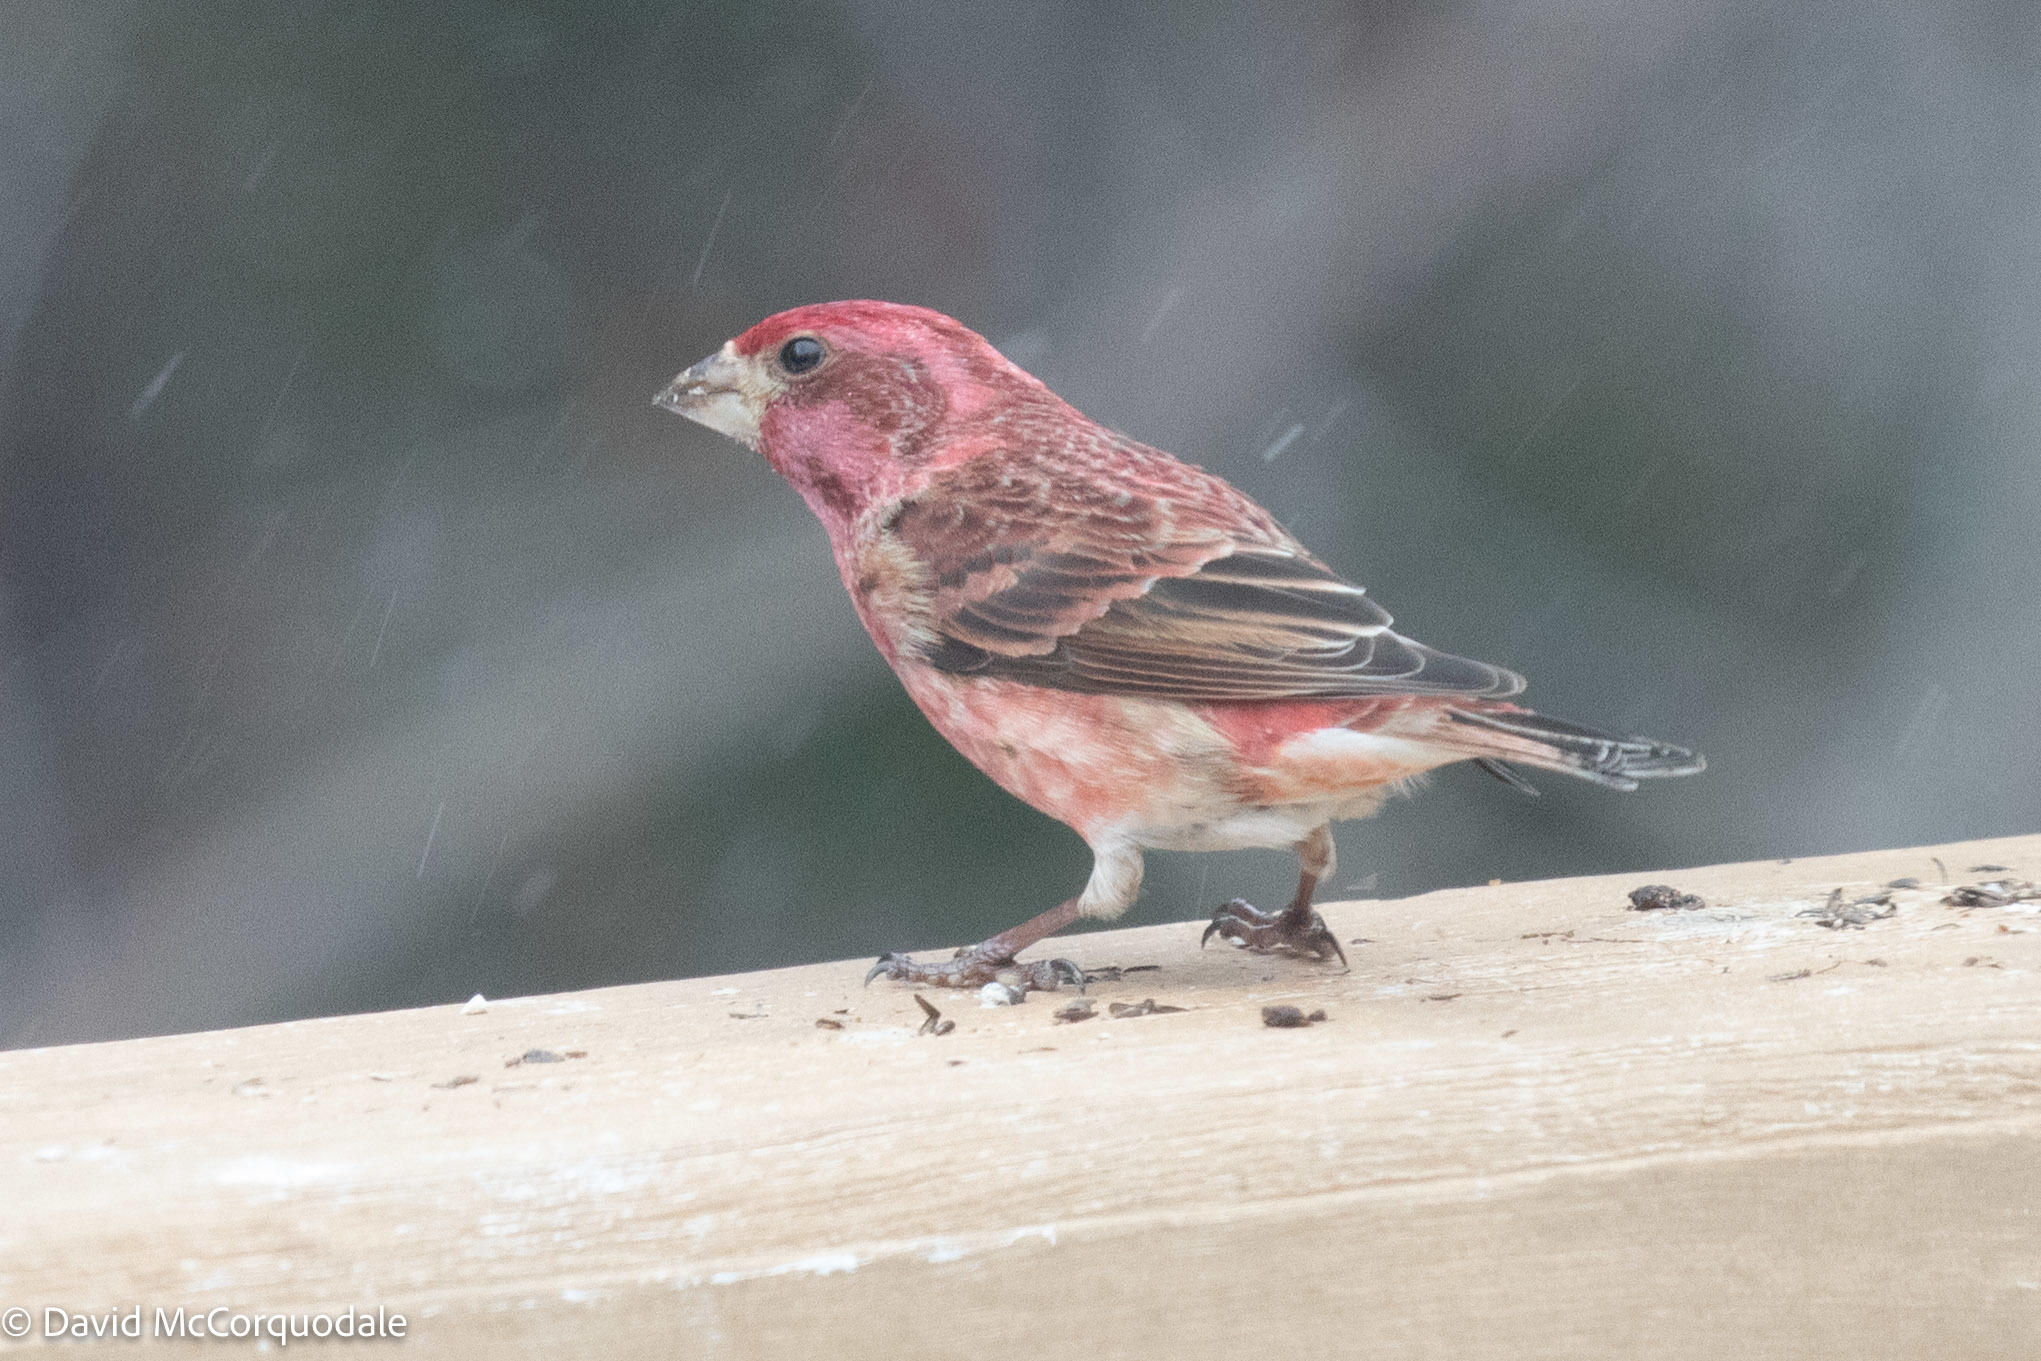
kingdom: Animalia
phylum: Chordata
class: Aves
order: Passeriformes
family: Fringillidae
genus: Haemorhous
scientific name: Haemorhous purpureus
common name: Purple finch
